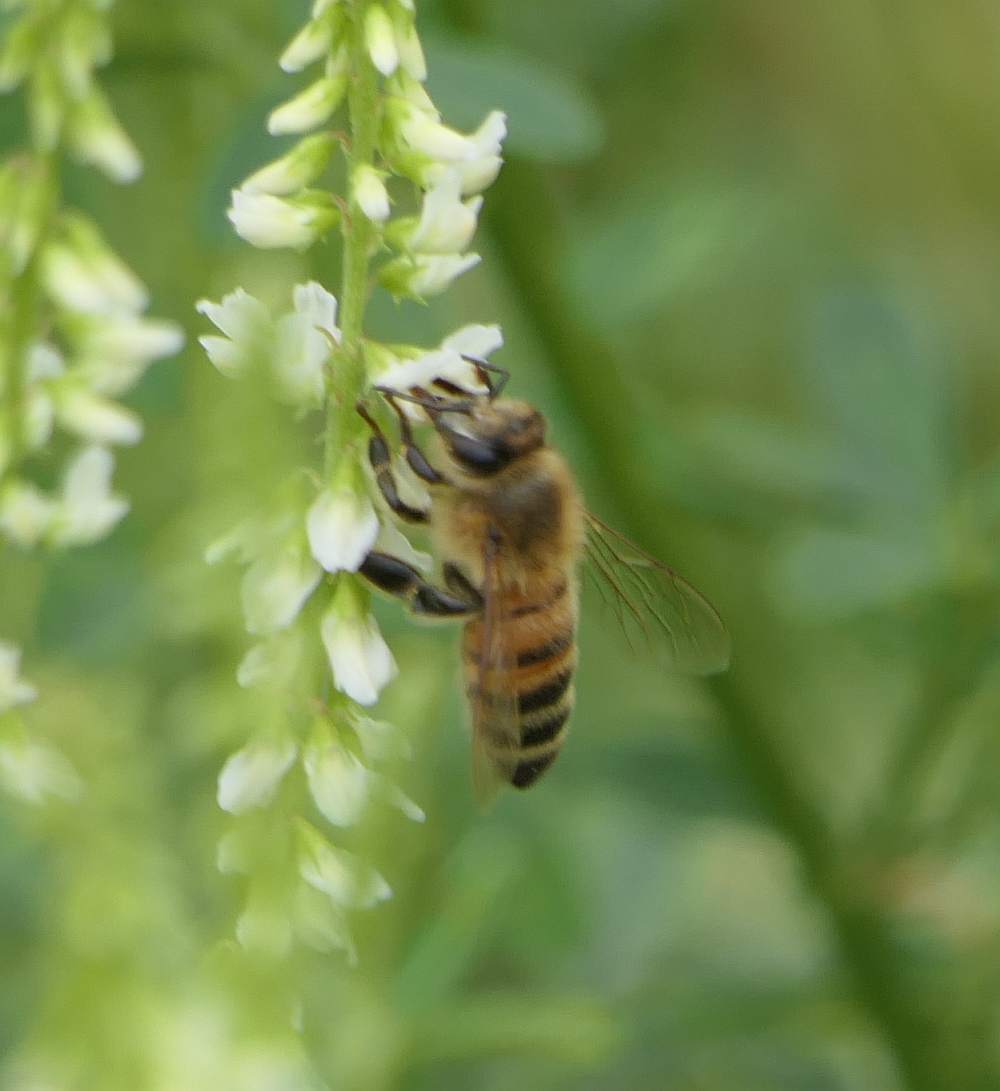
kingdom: Animalia
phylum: Arthropoda
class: Insecta
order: Hymenoptera
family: Apidae
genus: Apis
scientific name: Apis mellifera
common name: Honey bee
